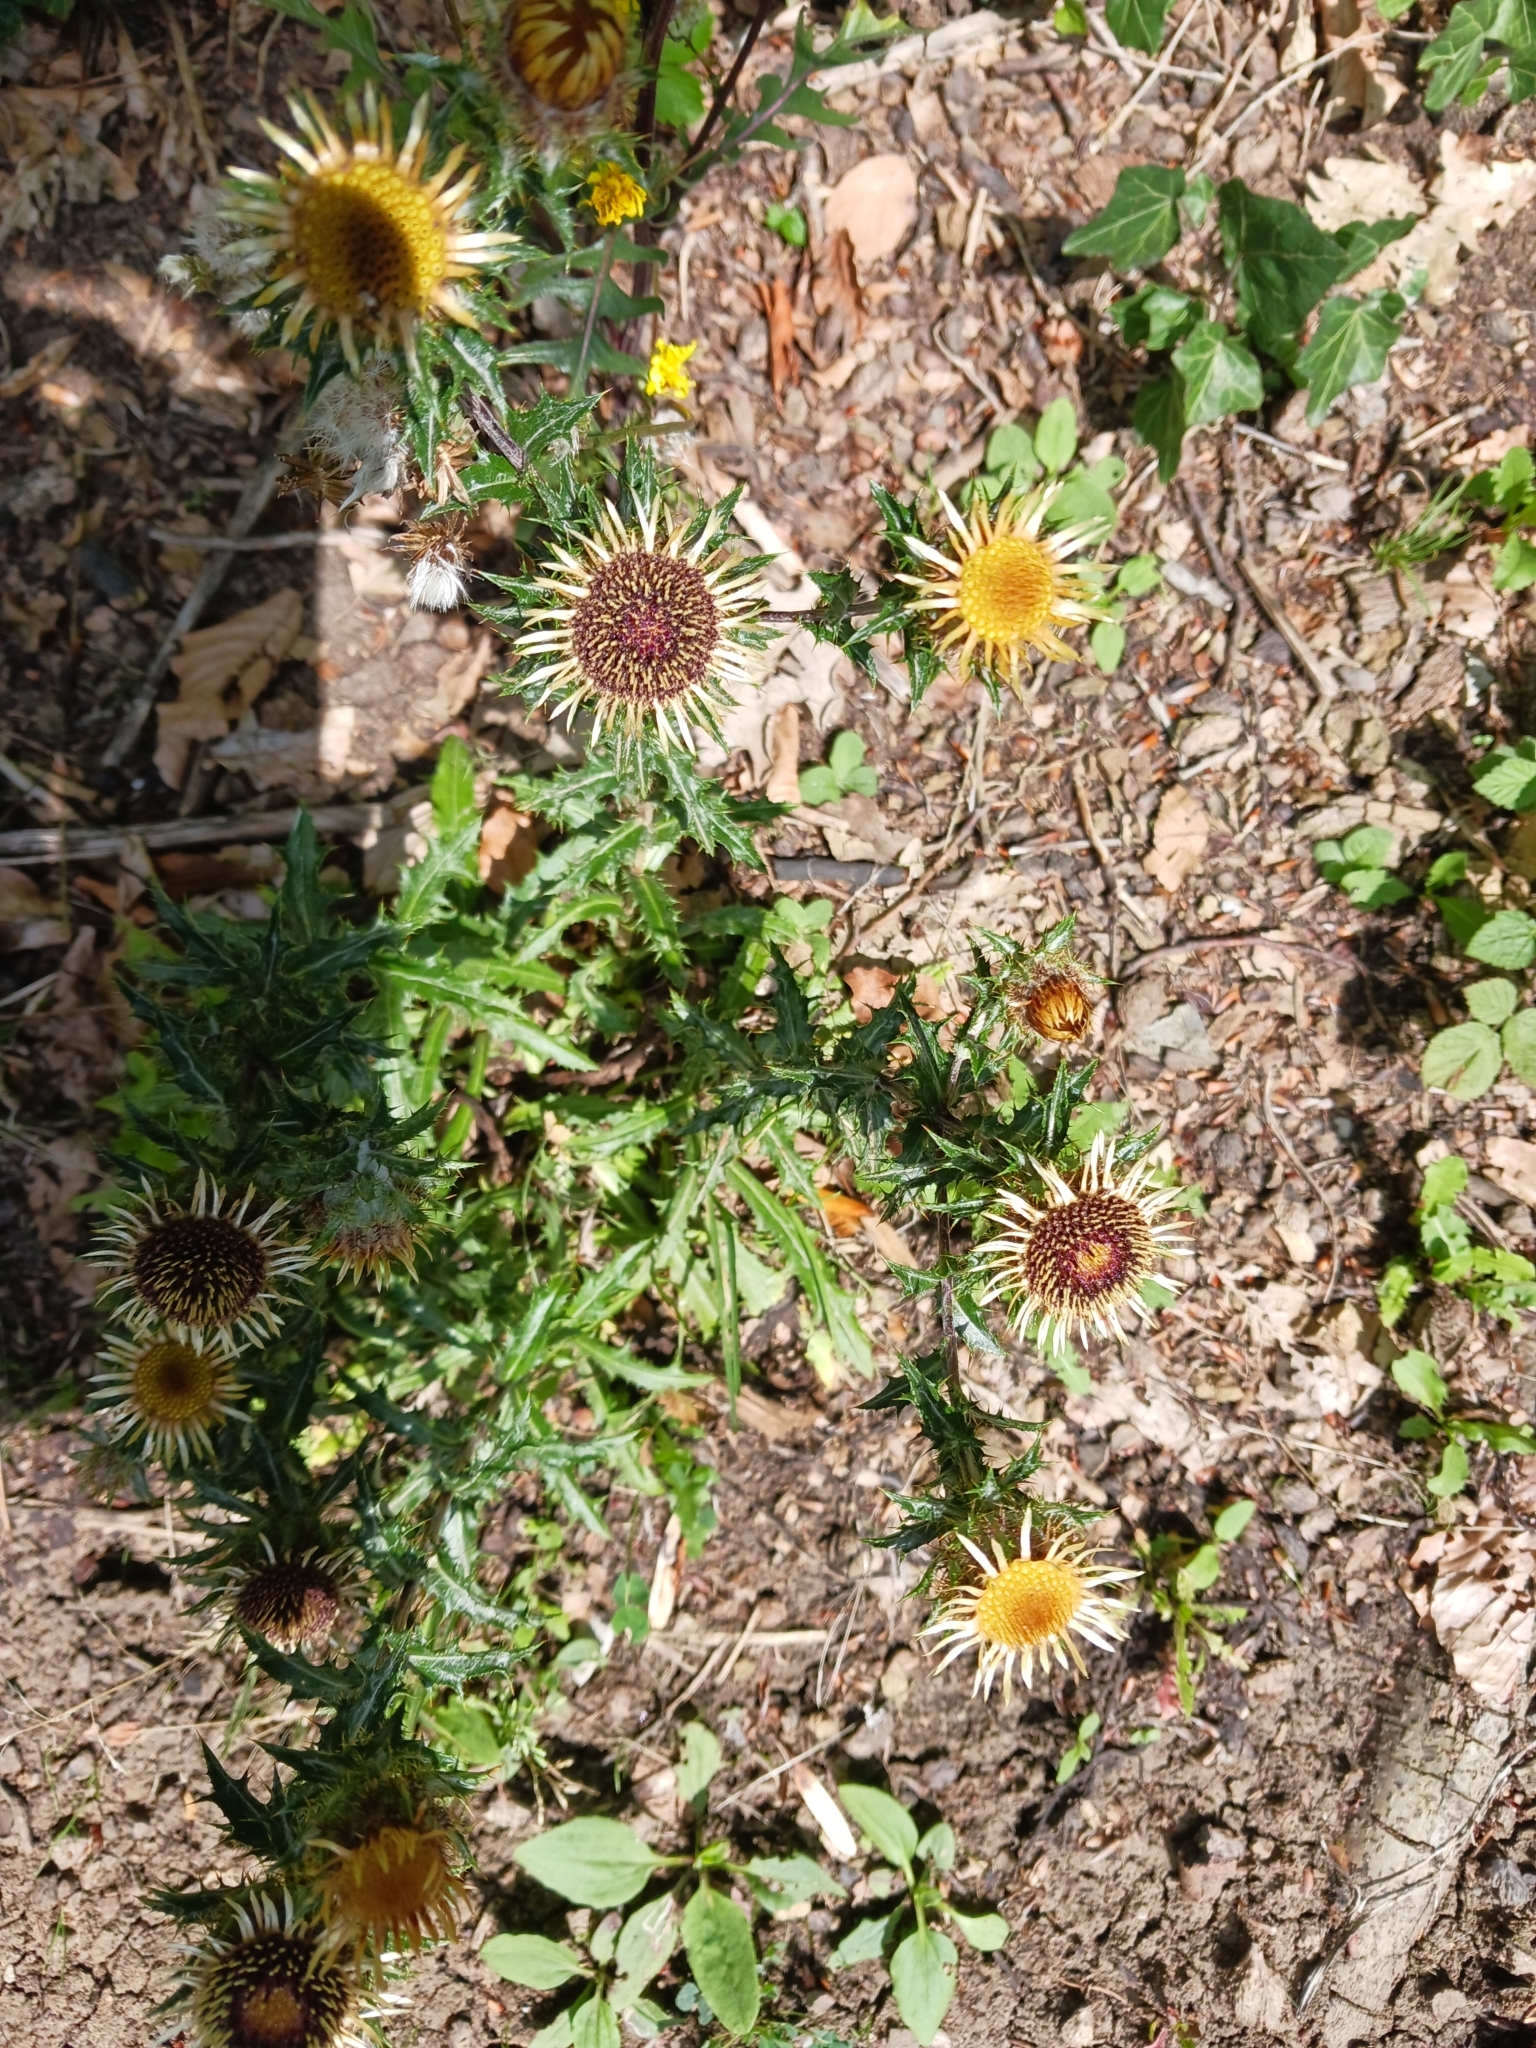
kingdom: Plantae
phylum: Tracheophyta
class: Magnoliopsida
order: Asterales
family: Asteraceae
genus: Carlina
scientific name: Carlina vulgaris
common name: Carline thistle
